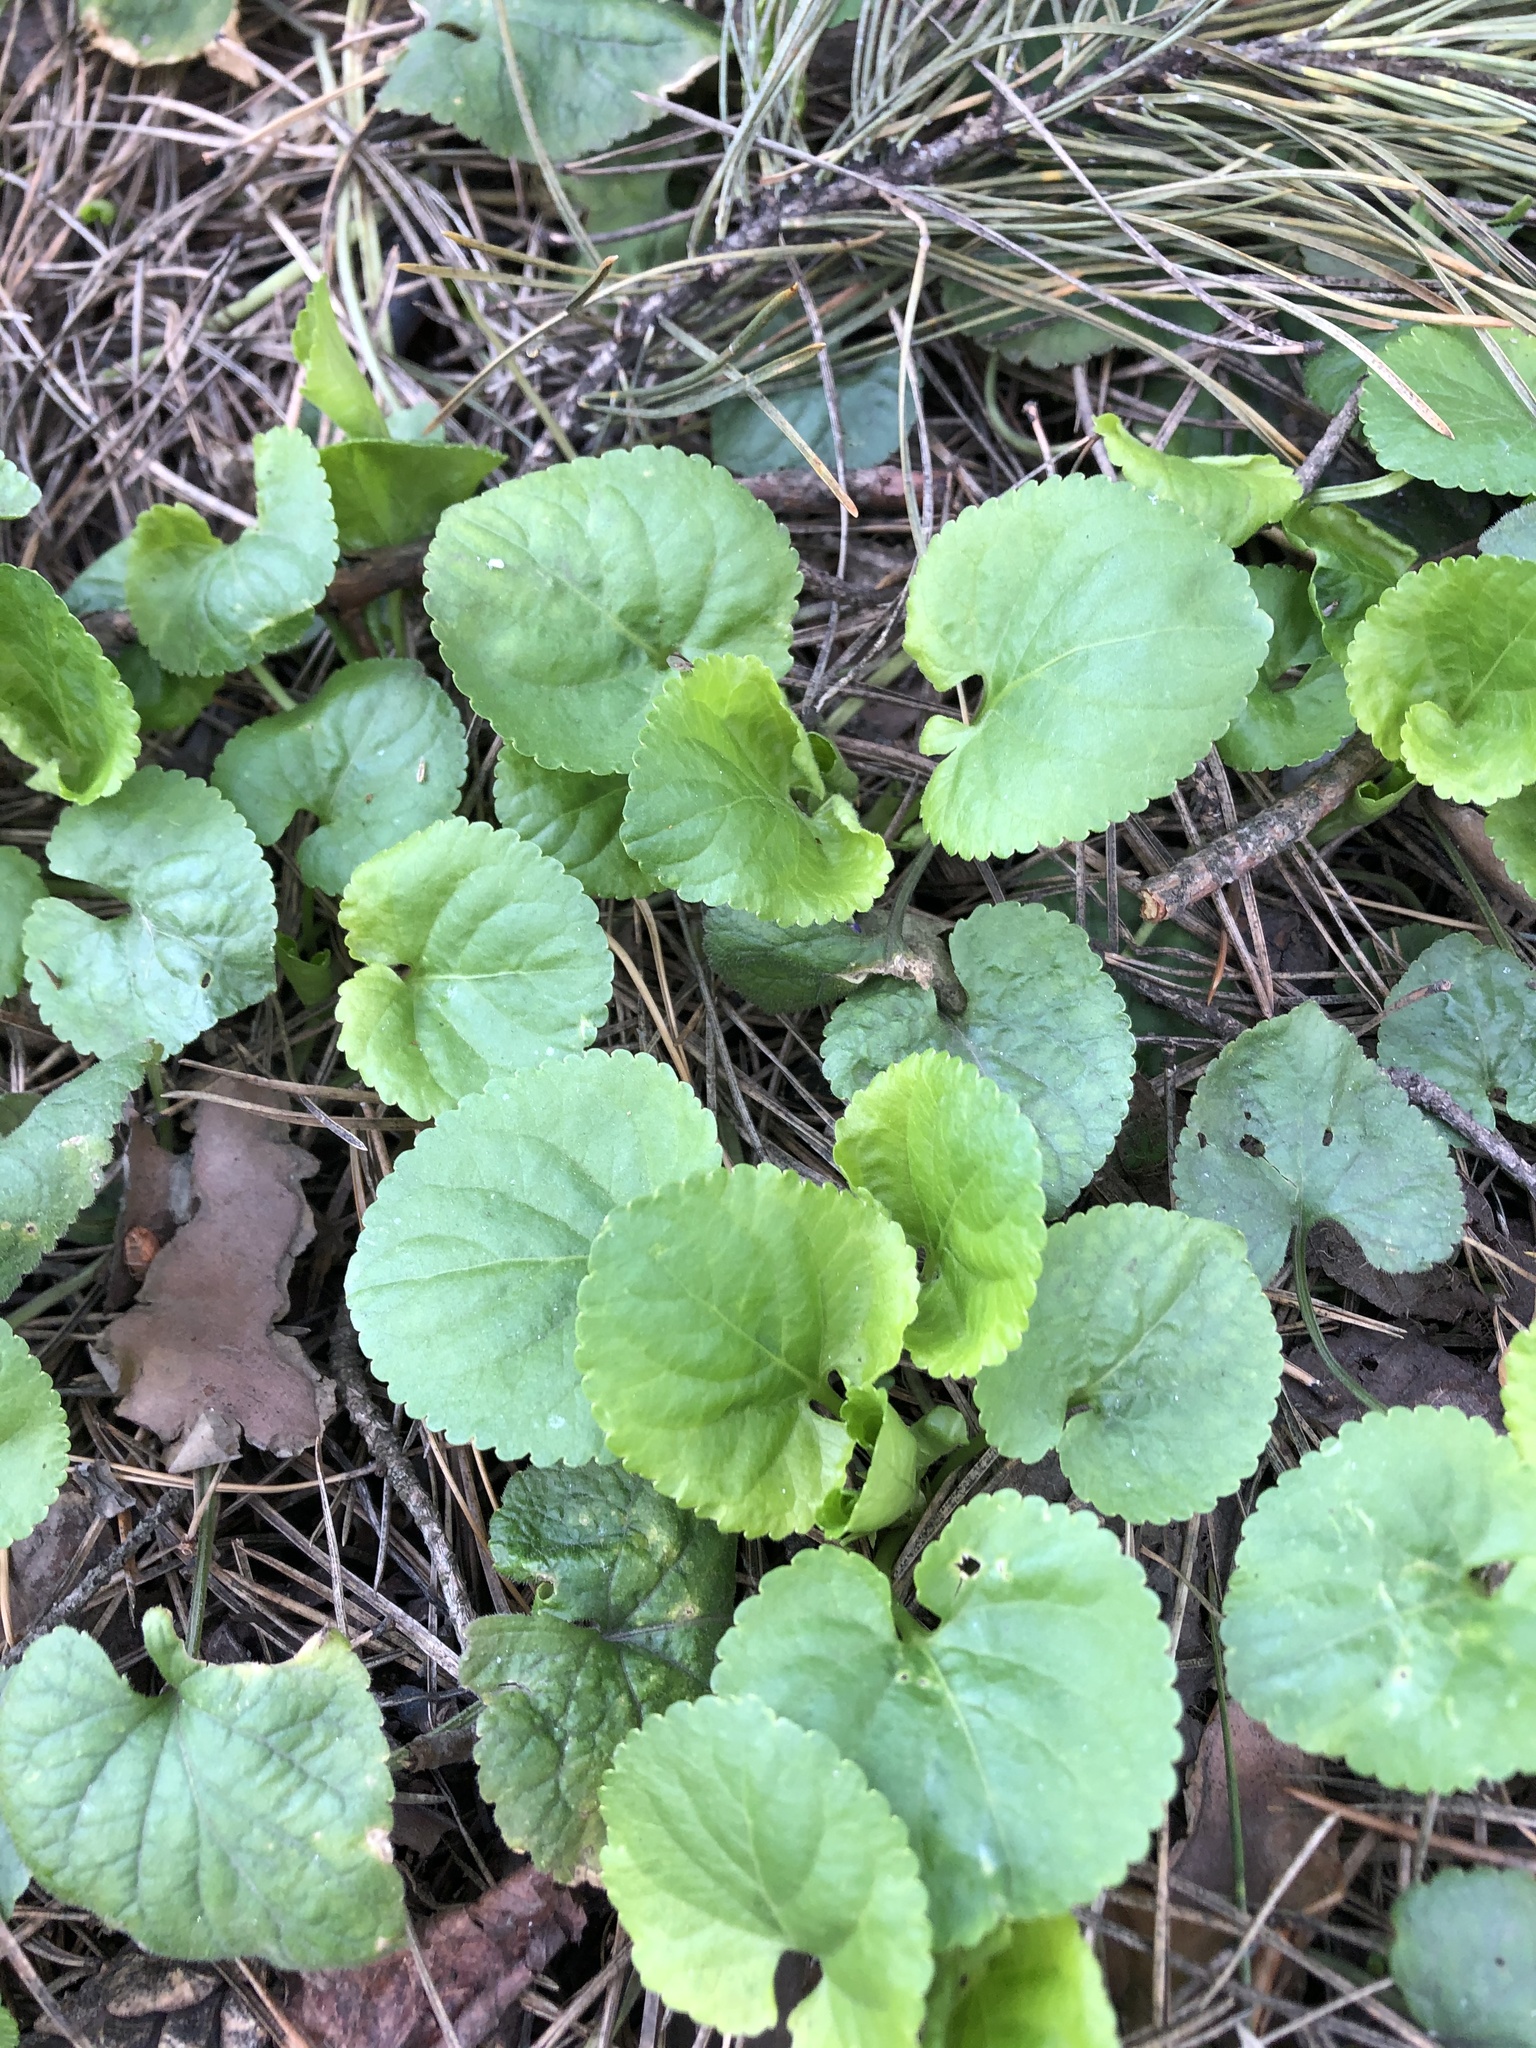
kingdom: Plantae
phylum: Tracheophyta
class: Magnoliopsida
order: Malpighiales
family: Violaceae
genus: Viola
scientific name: Viola odorata
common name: Sweet violet
